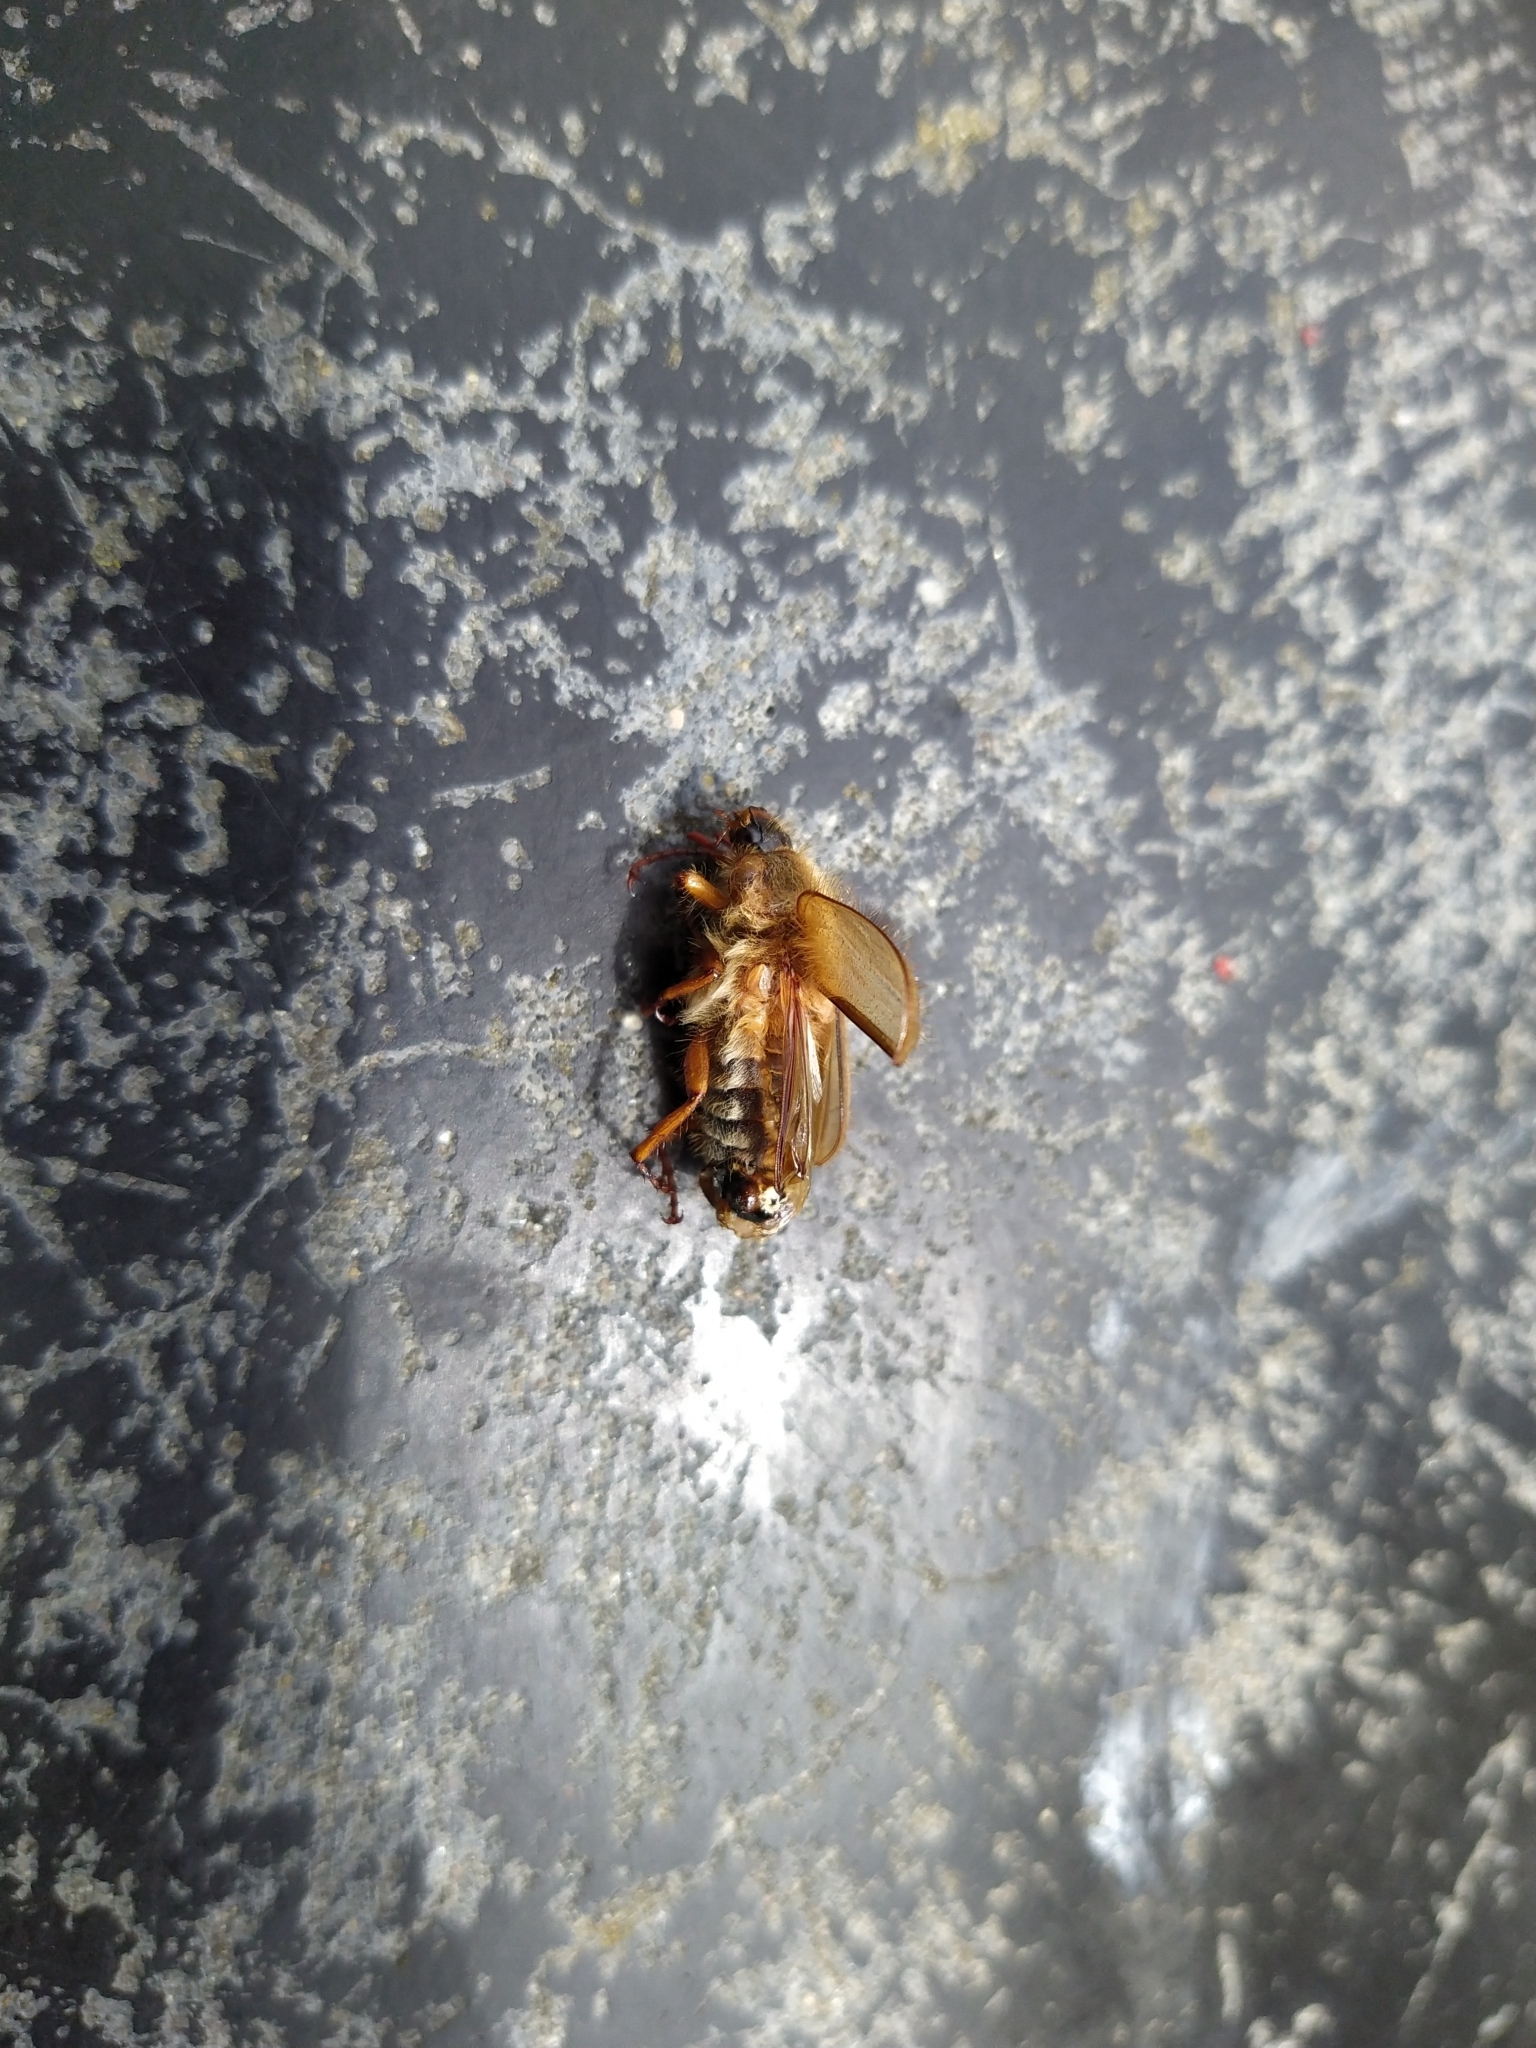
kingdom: Animalia
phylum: Arthropoda
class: Insecta
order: Coleoptera
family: Scarabaeidae
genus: Amphimallon
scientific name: Amphimallon solstitiale
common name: Summer chafer
